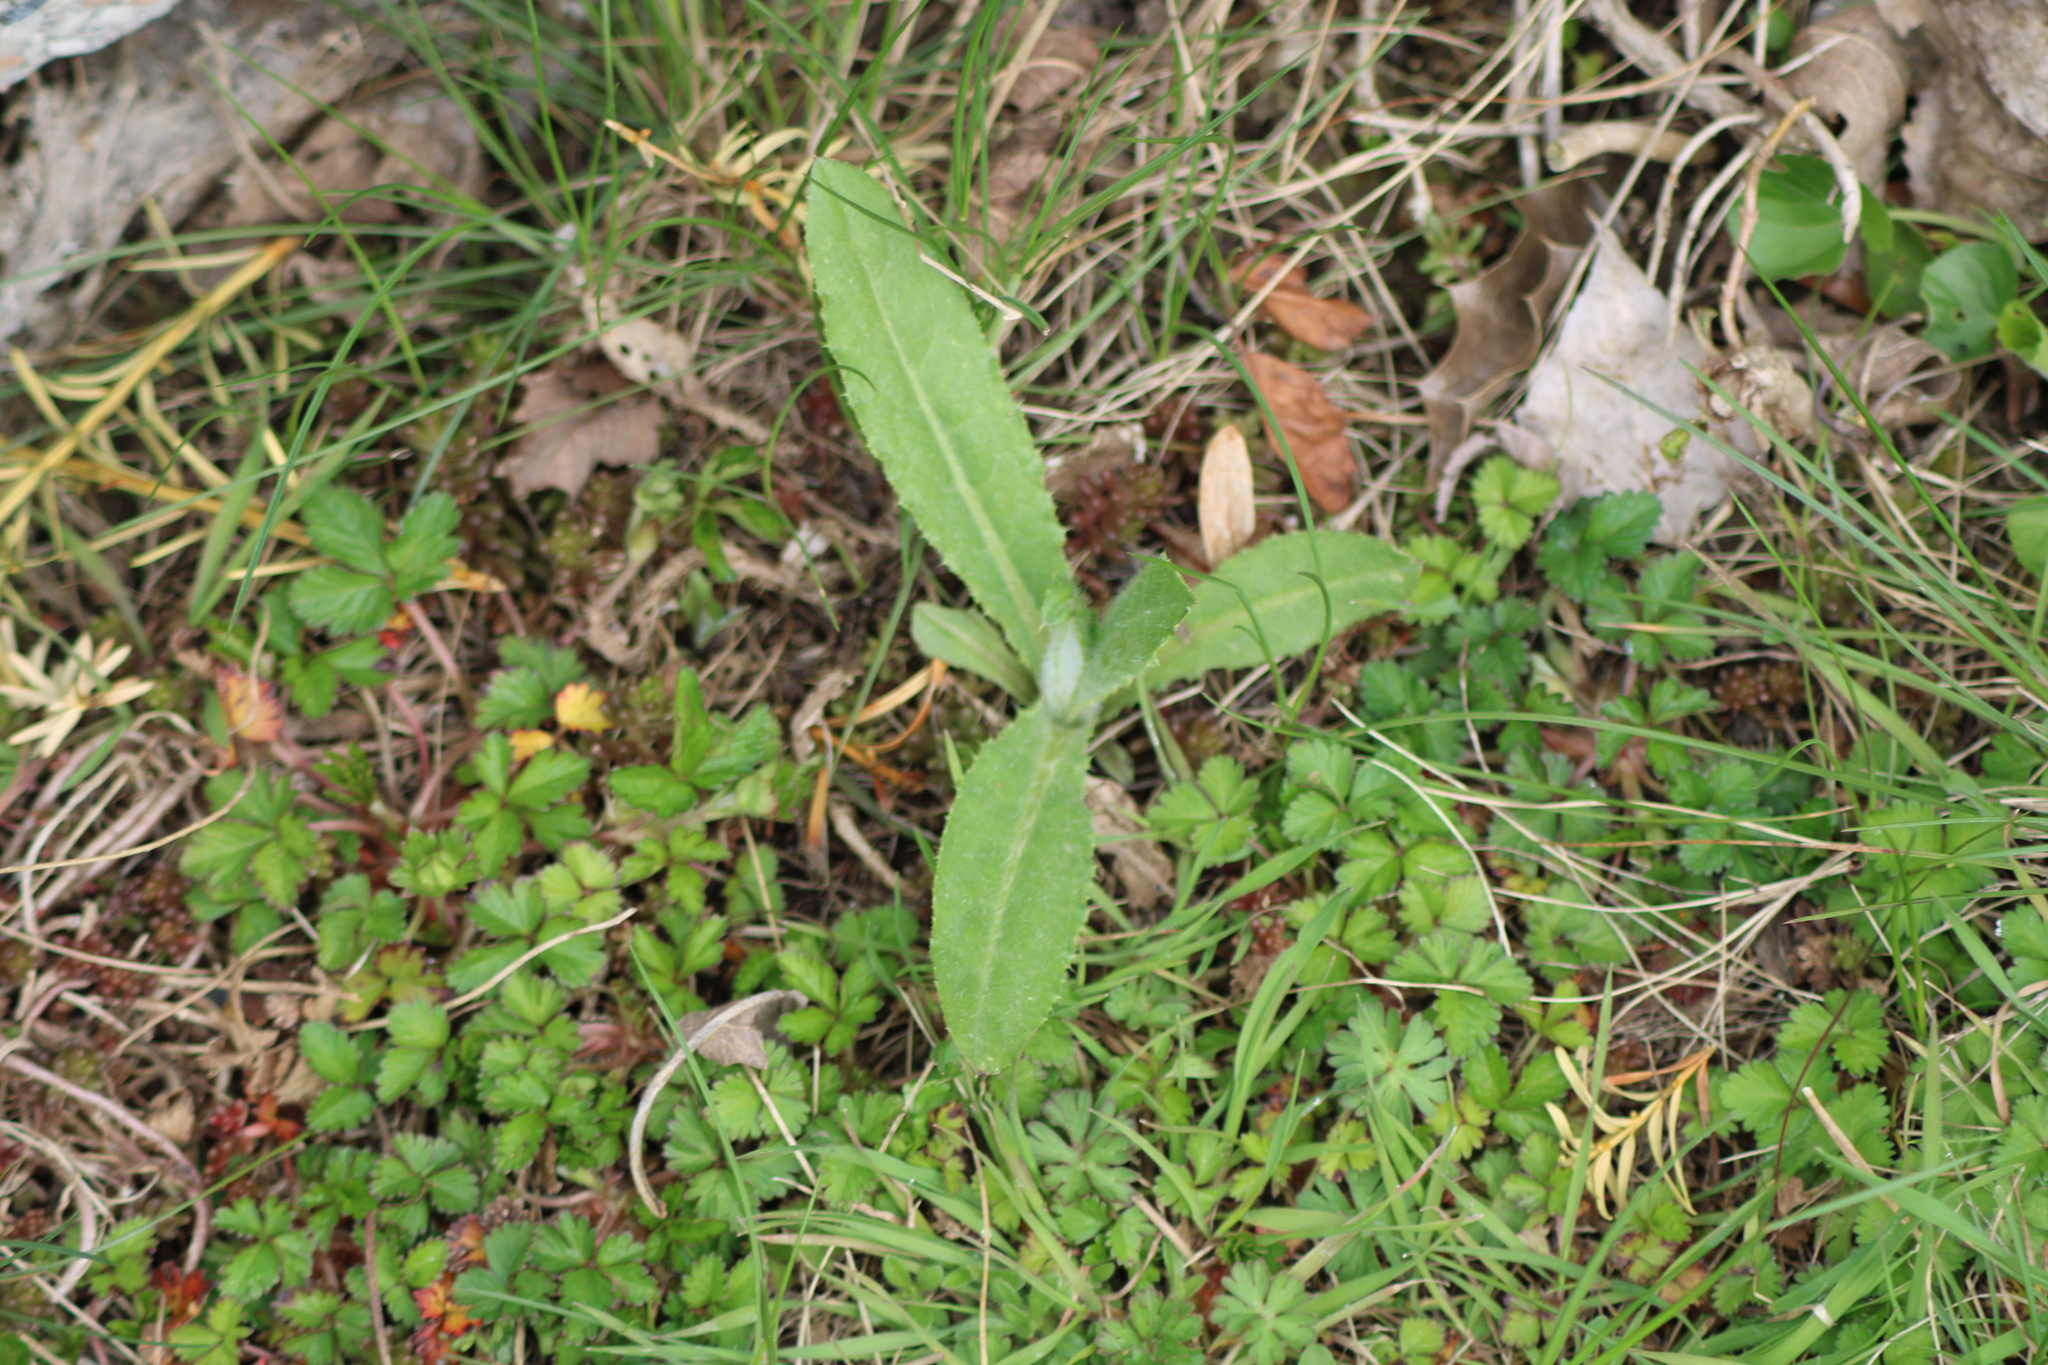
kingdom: Plantae
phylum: Tracheophyta
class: Magnoliopsida
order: Asterales
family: Asteraceae
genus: Cirsium
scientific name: Cirsium arvense
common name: Creeping thistle
